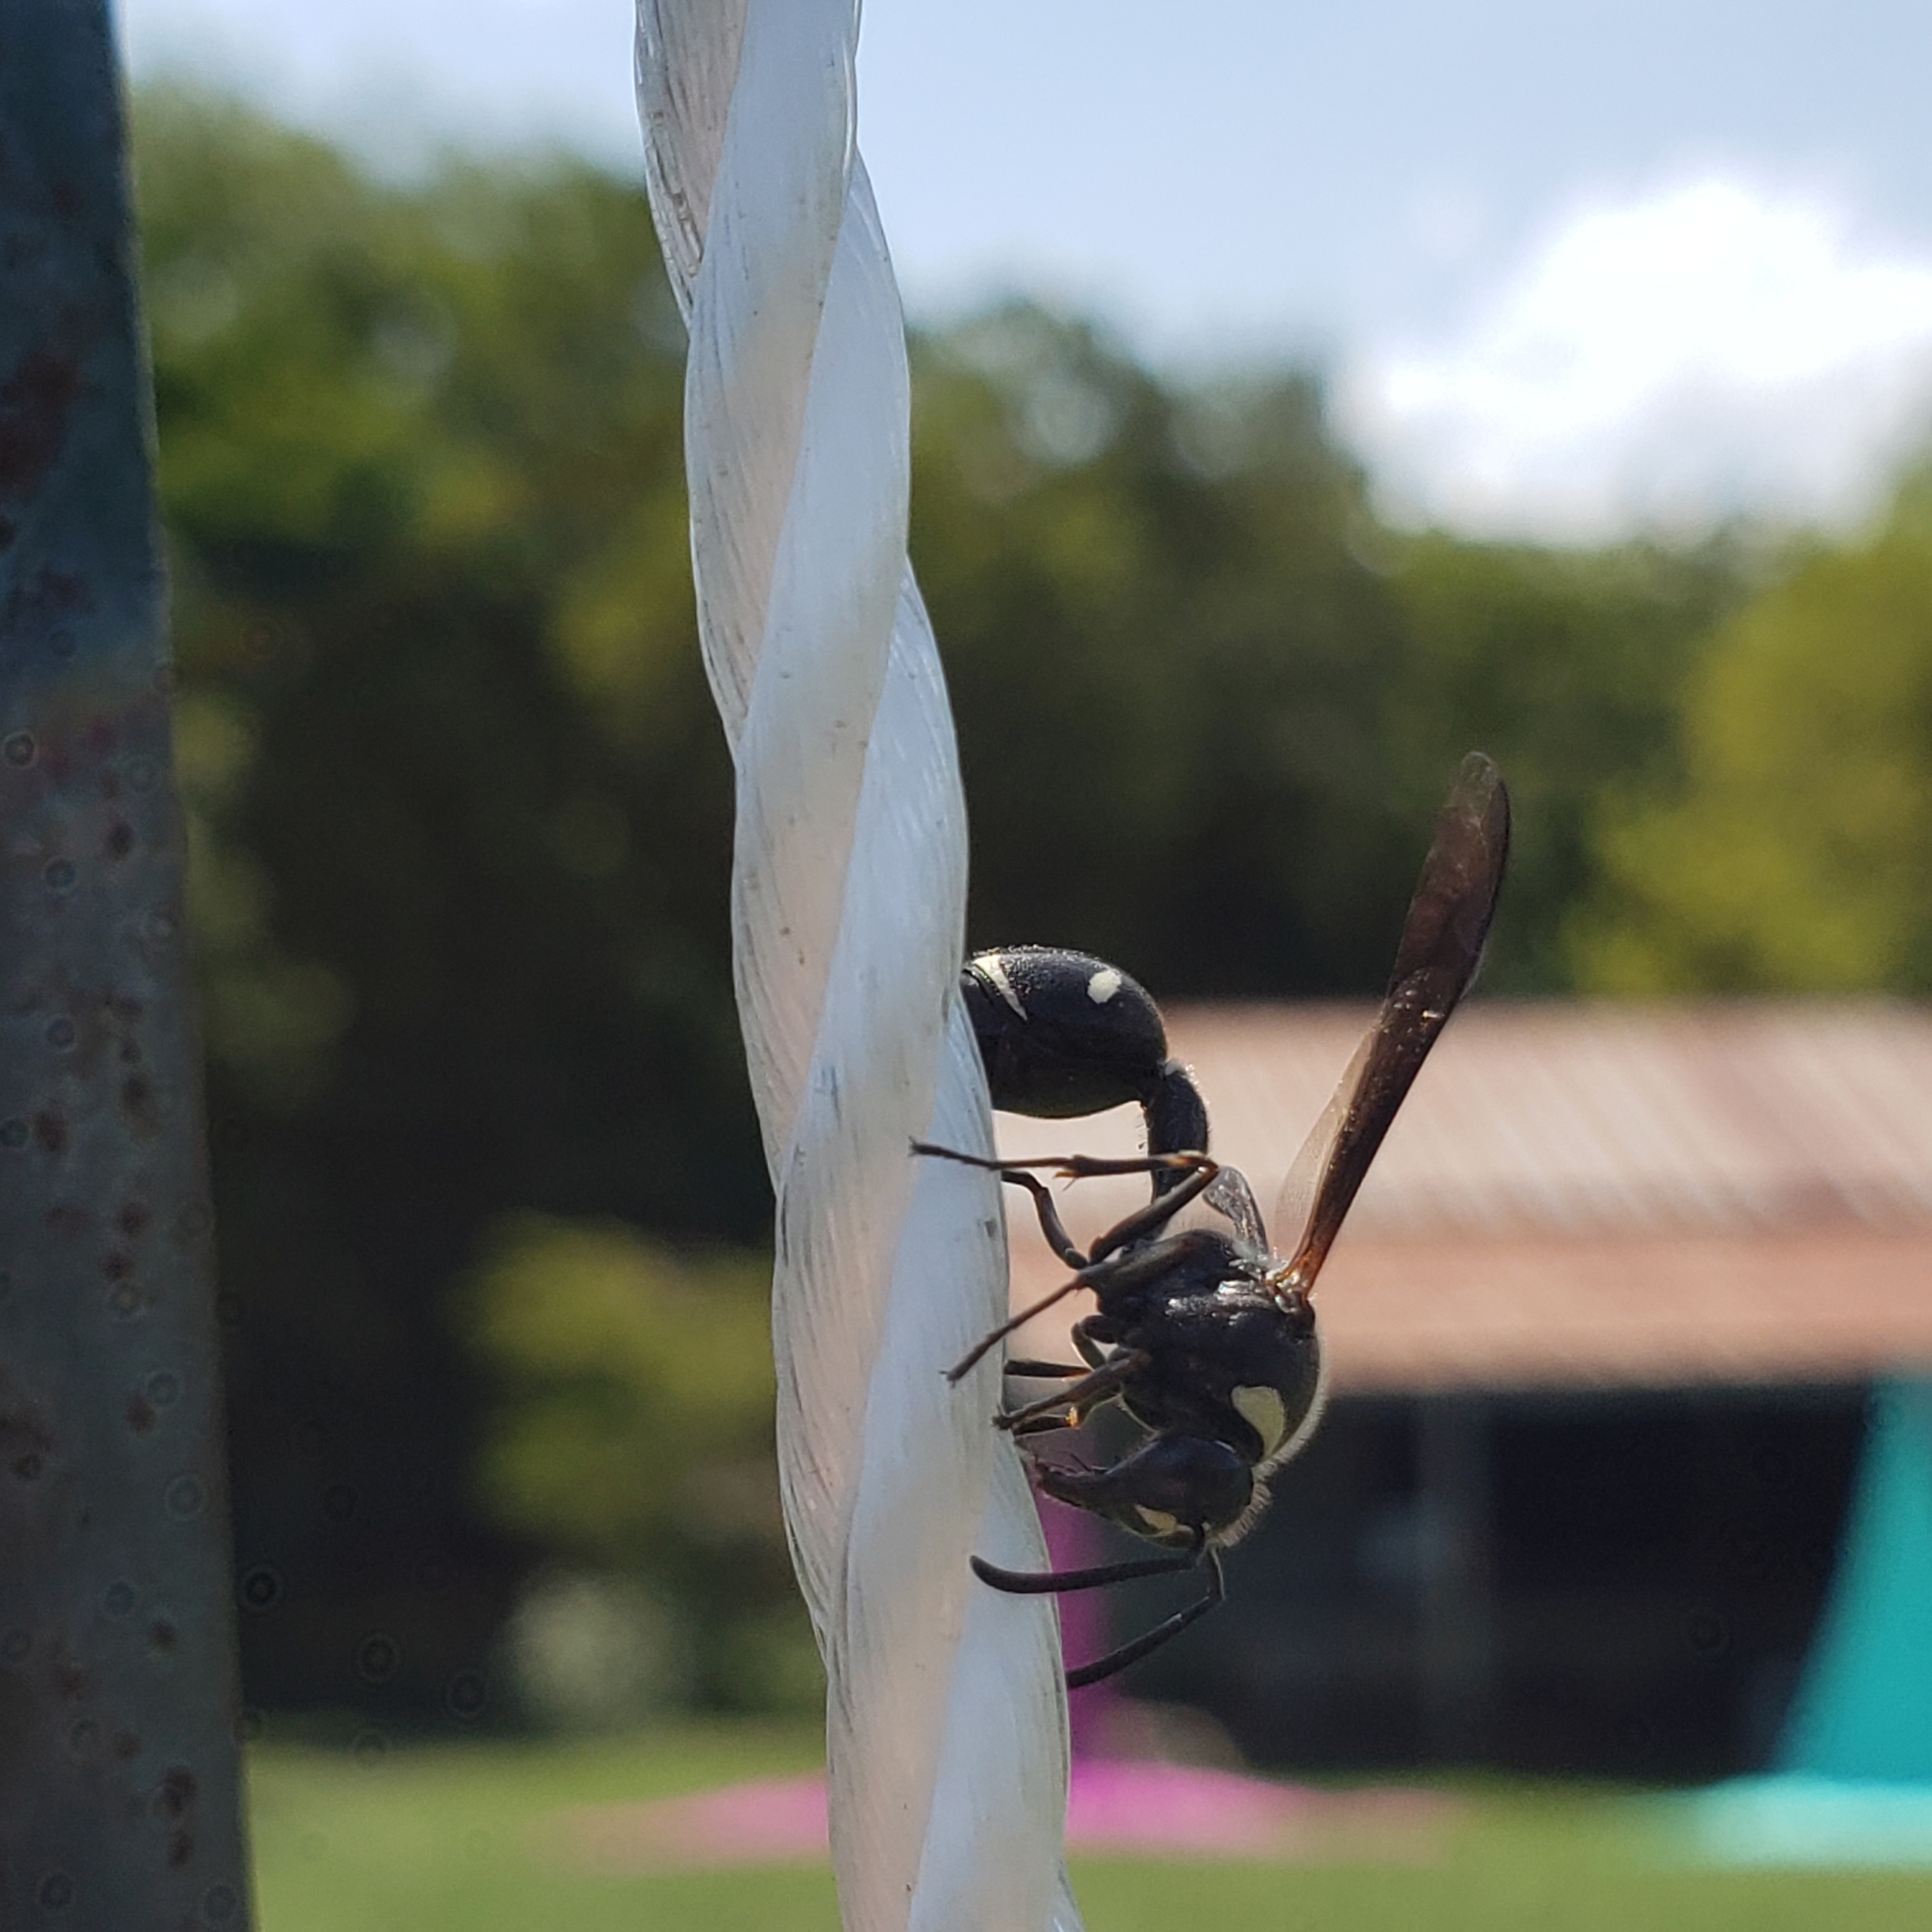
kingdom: Animalia
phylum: Arthropoda
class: Insecta
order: Hymenoptera
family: Vespidae
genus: Eumenes
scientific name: Eumenes fraternus
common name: Fraternal potter wasp
